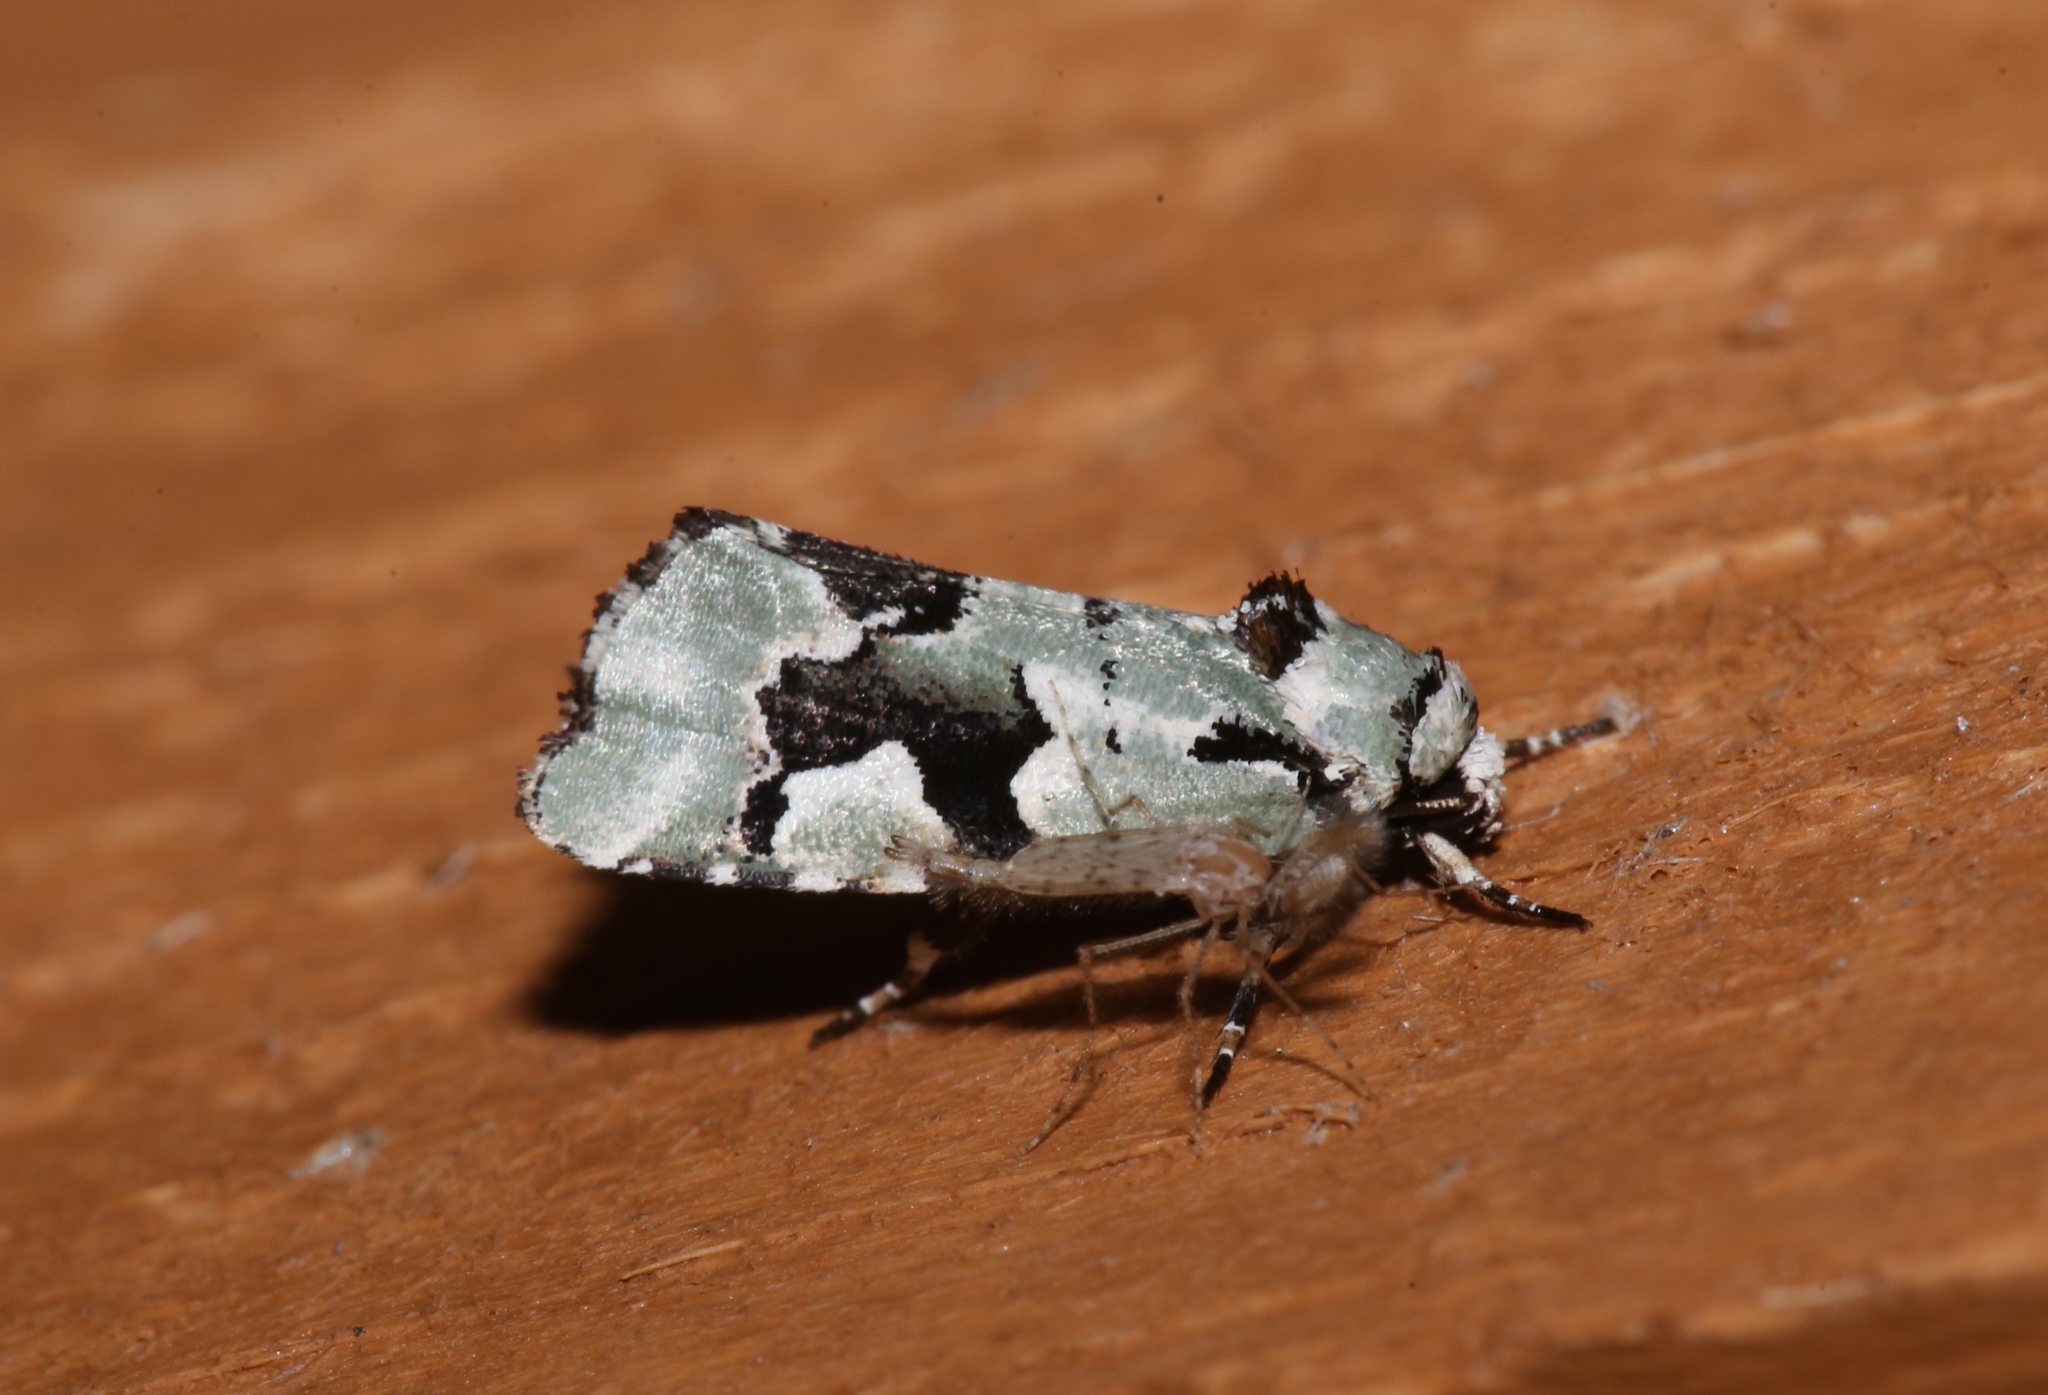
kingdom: Animalia
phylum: Arthropoda
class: Insecta
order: Lepidoptera
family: Noctuidae
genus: Emarginea
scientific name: Emarginea percara
